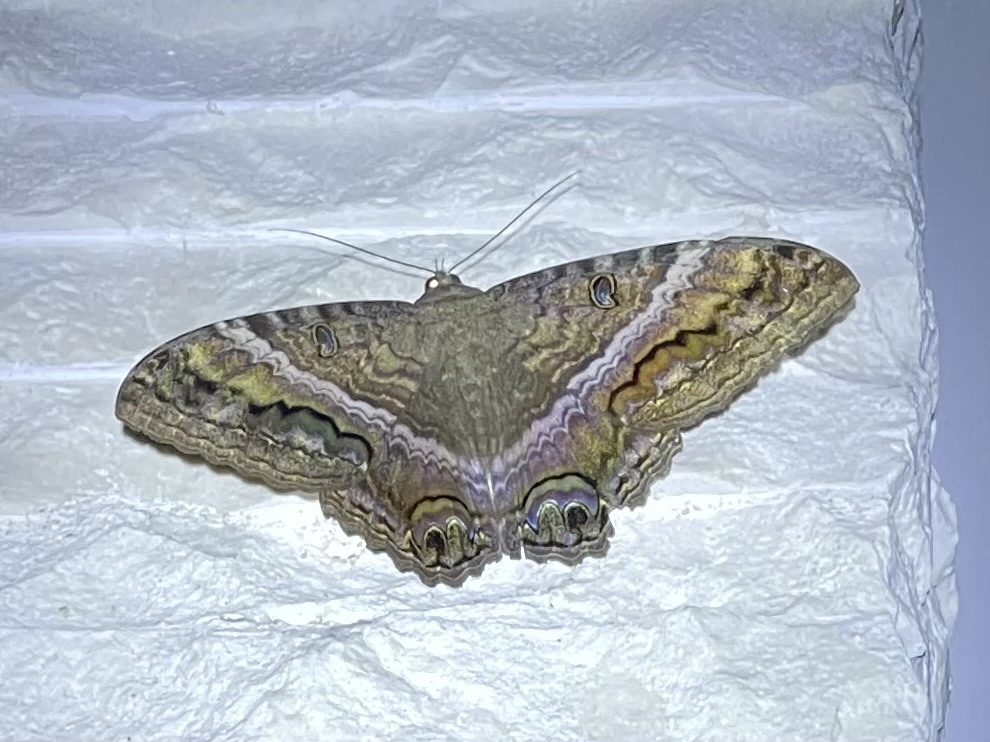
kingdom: Animalia
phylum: Arthropoda
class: Insecta
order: Lepidoptera
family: Erebidae
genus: Ascalapha
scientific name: Ascalapha odorata
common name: Black witch
